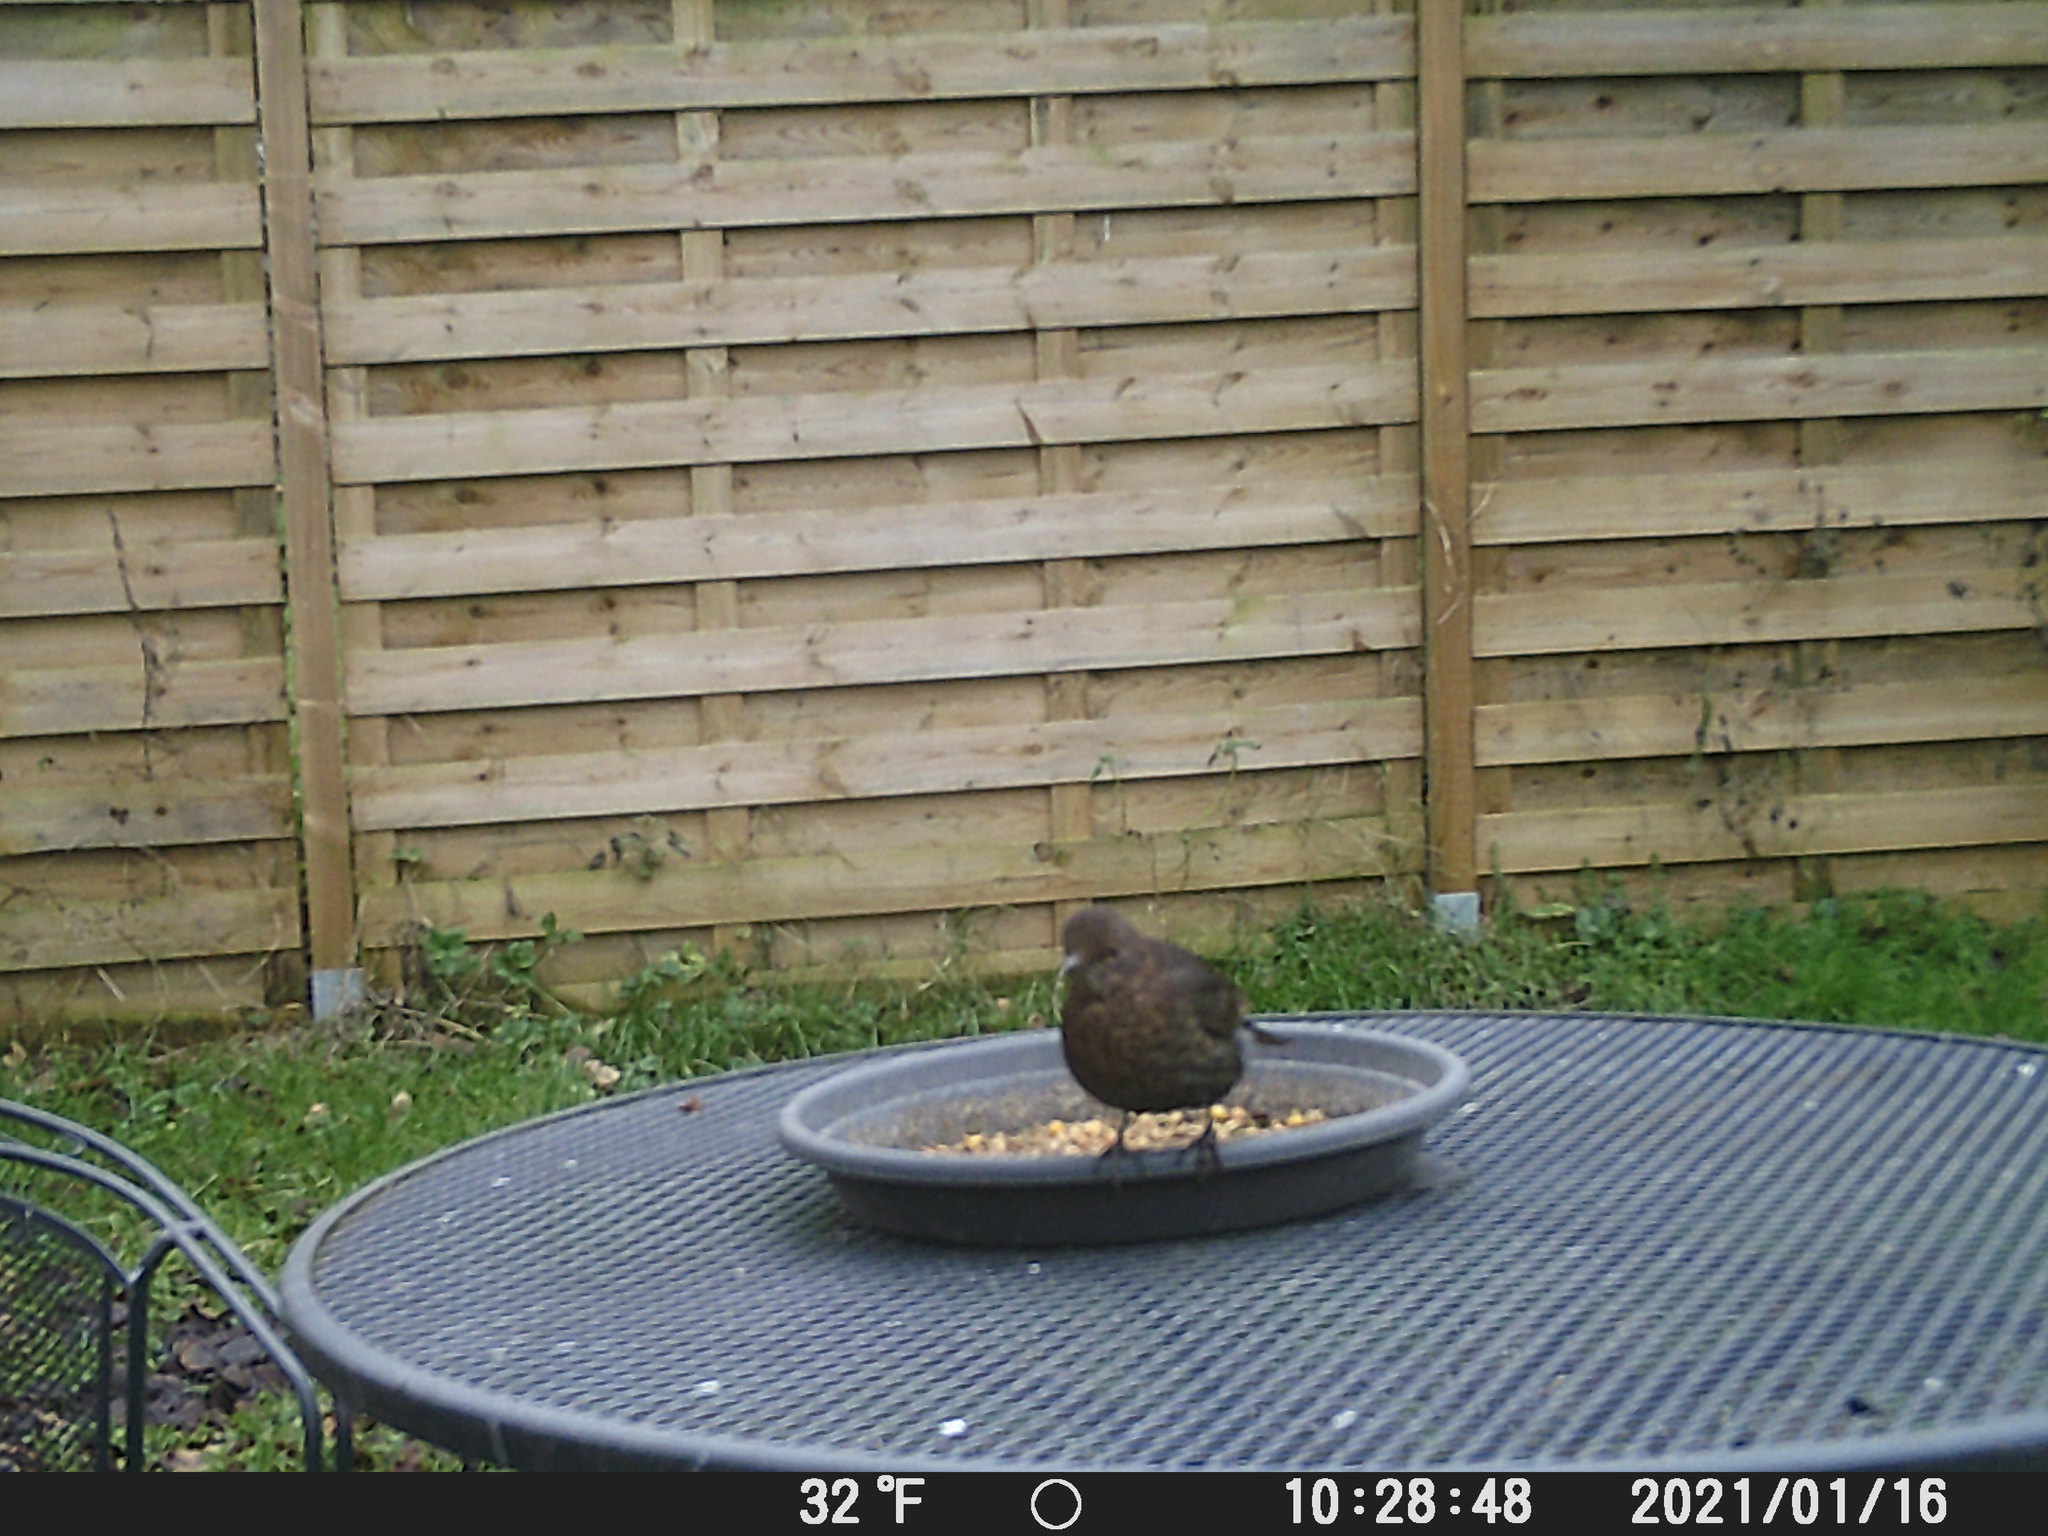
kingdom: Animalia
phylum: Chordata
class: Aves
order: Passeriformes
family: Turdidae
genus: Turdus
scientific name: Turdus merula
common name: Common blackbird
